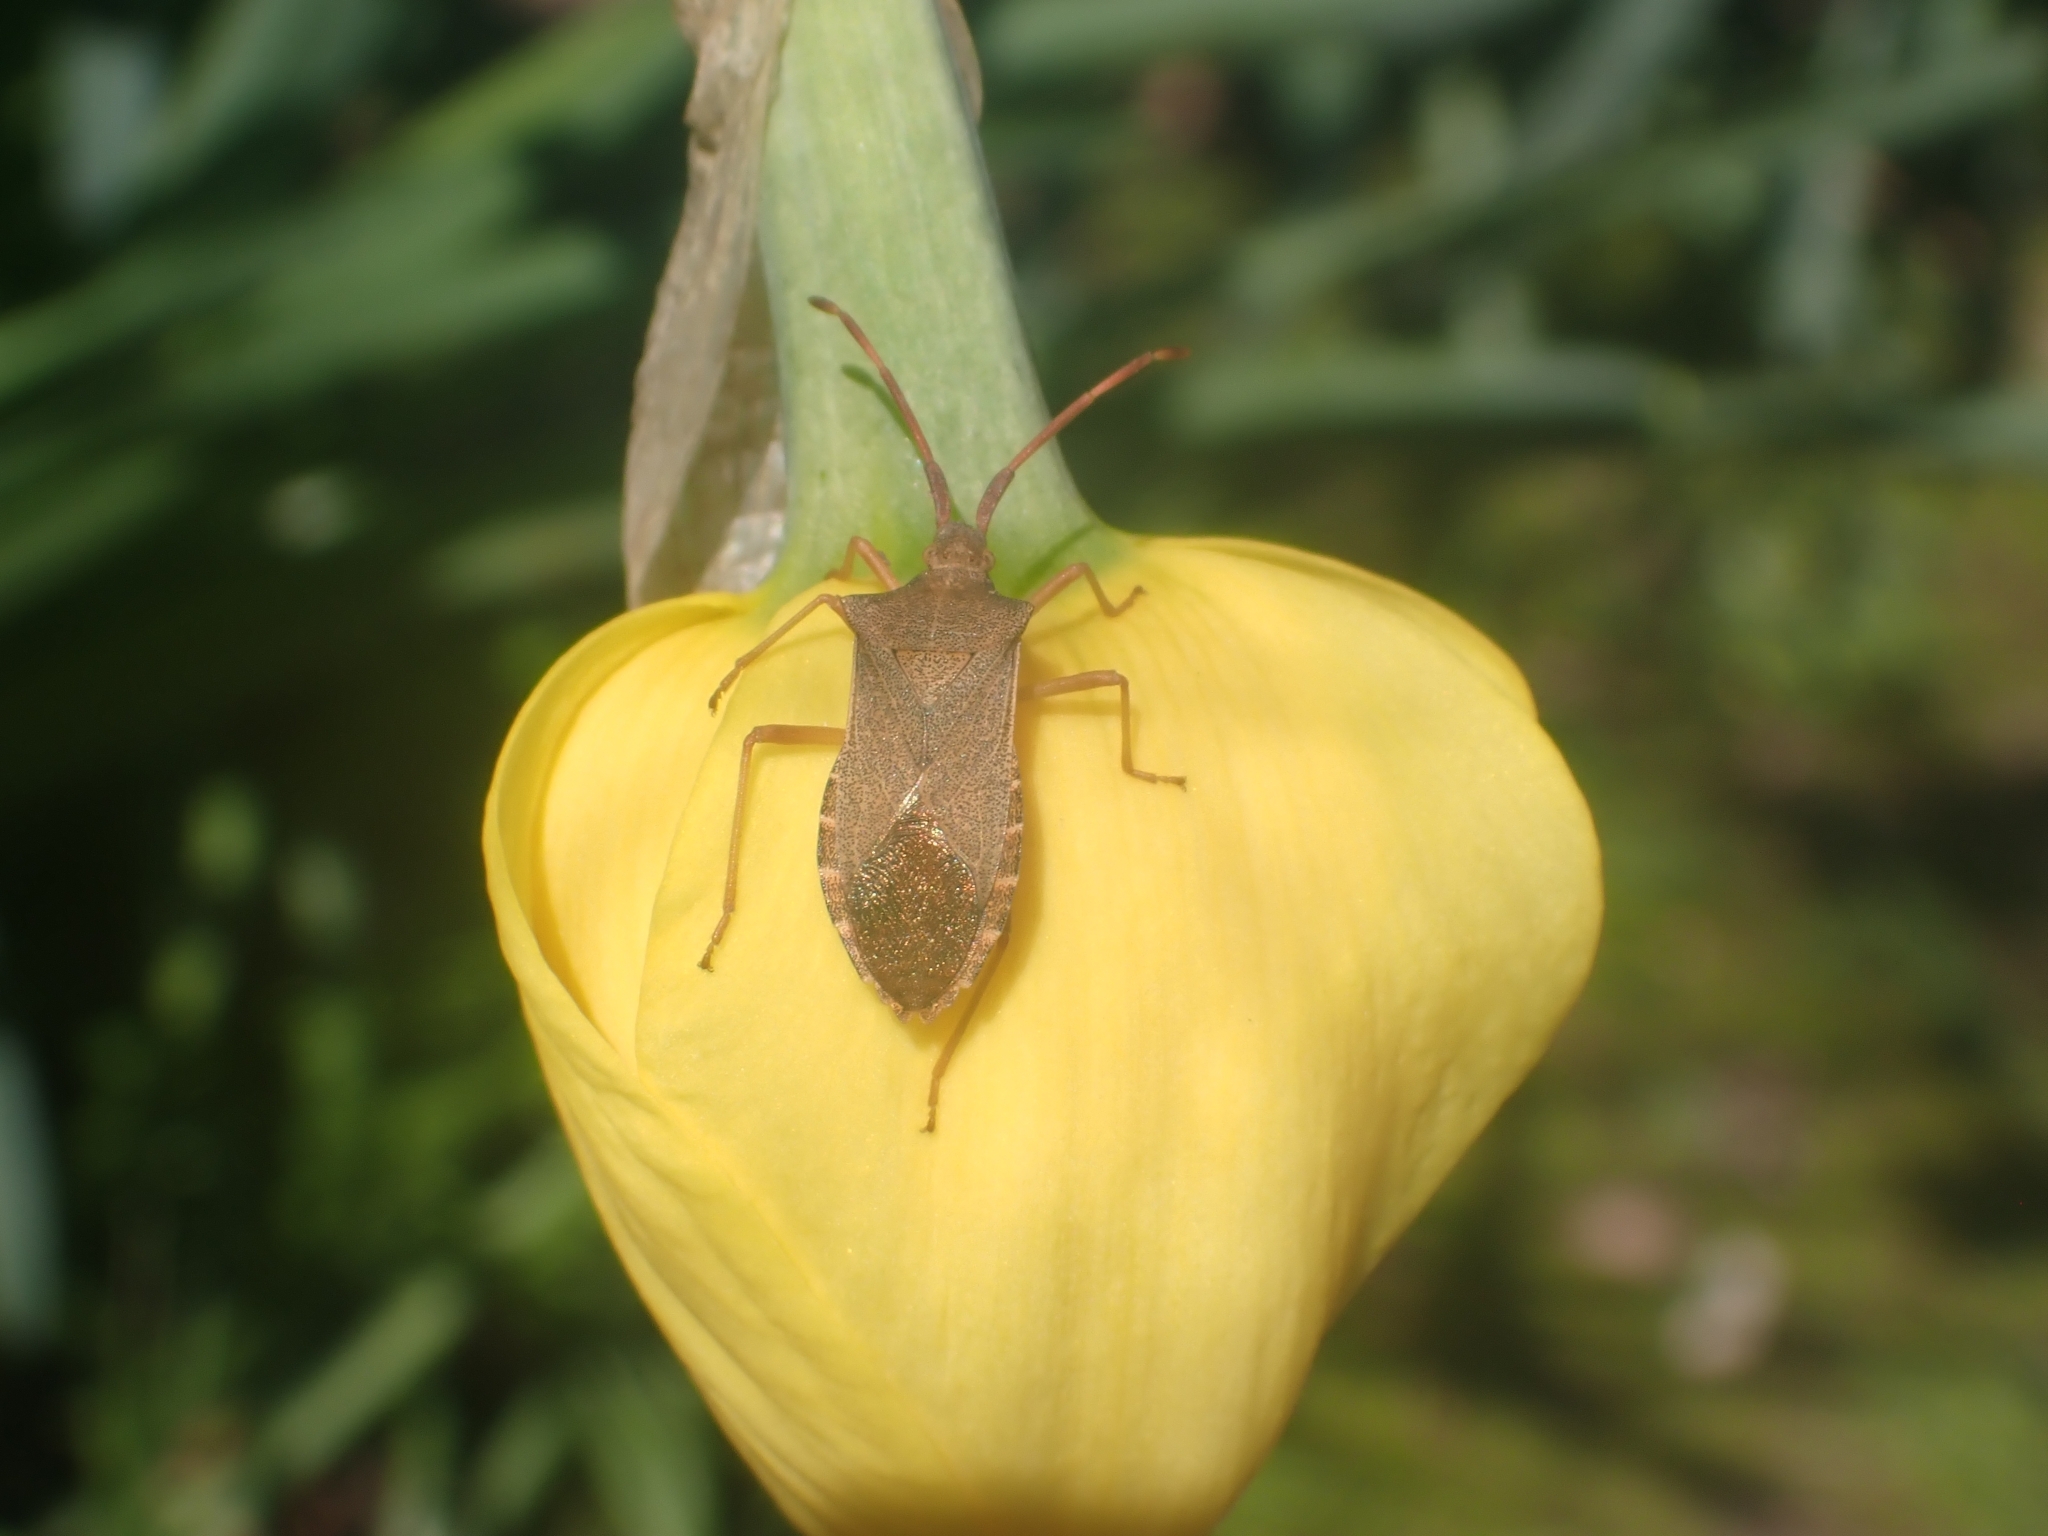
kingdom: Animalia
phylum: Arthropoda
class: Insecta
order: Hemiptera
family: Coreidae
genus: Gonocerus
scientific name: Gonocerus acuteangulatus
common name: Box bug
